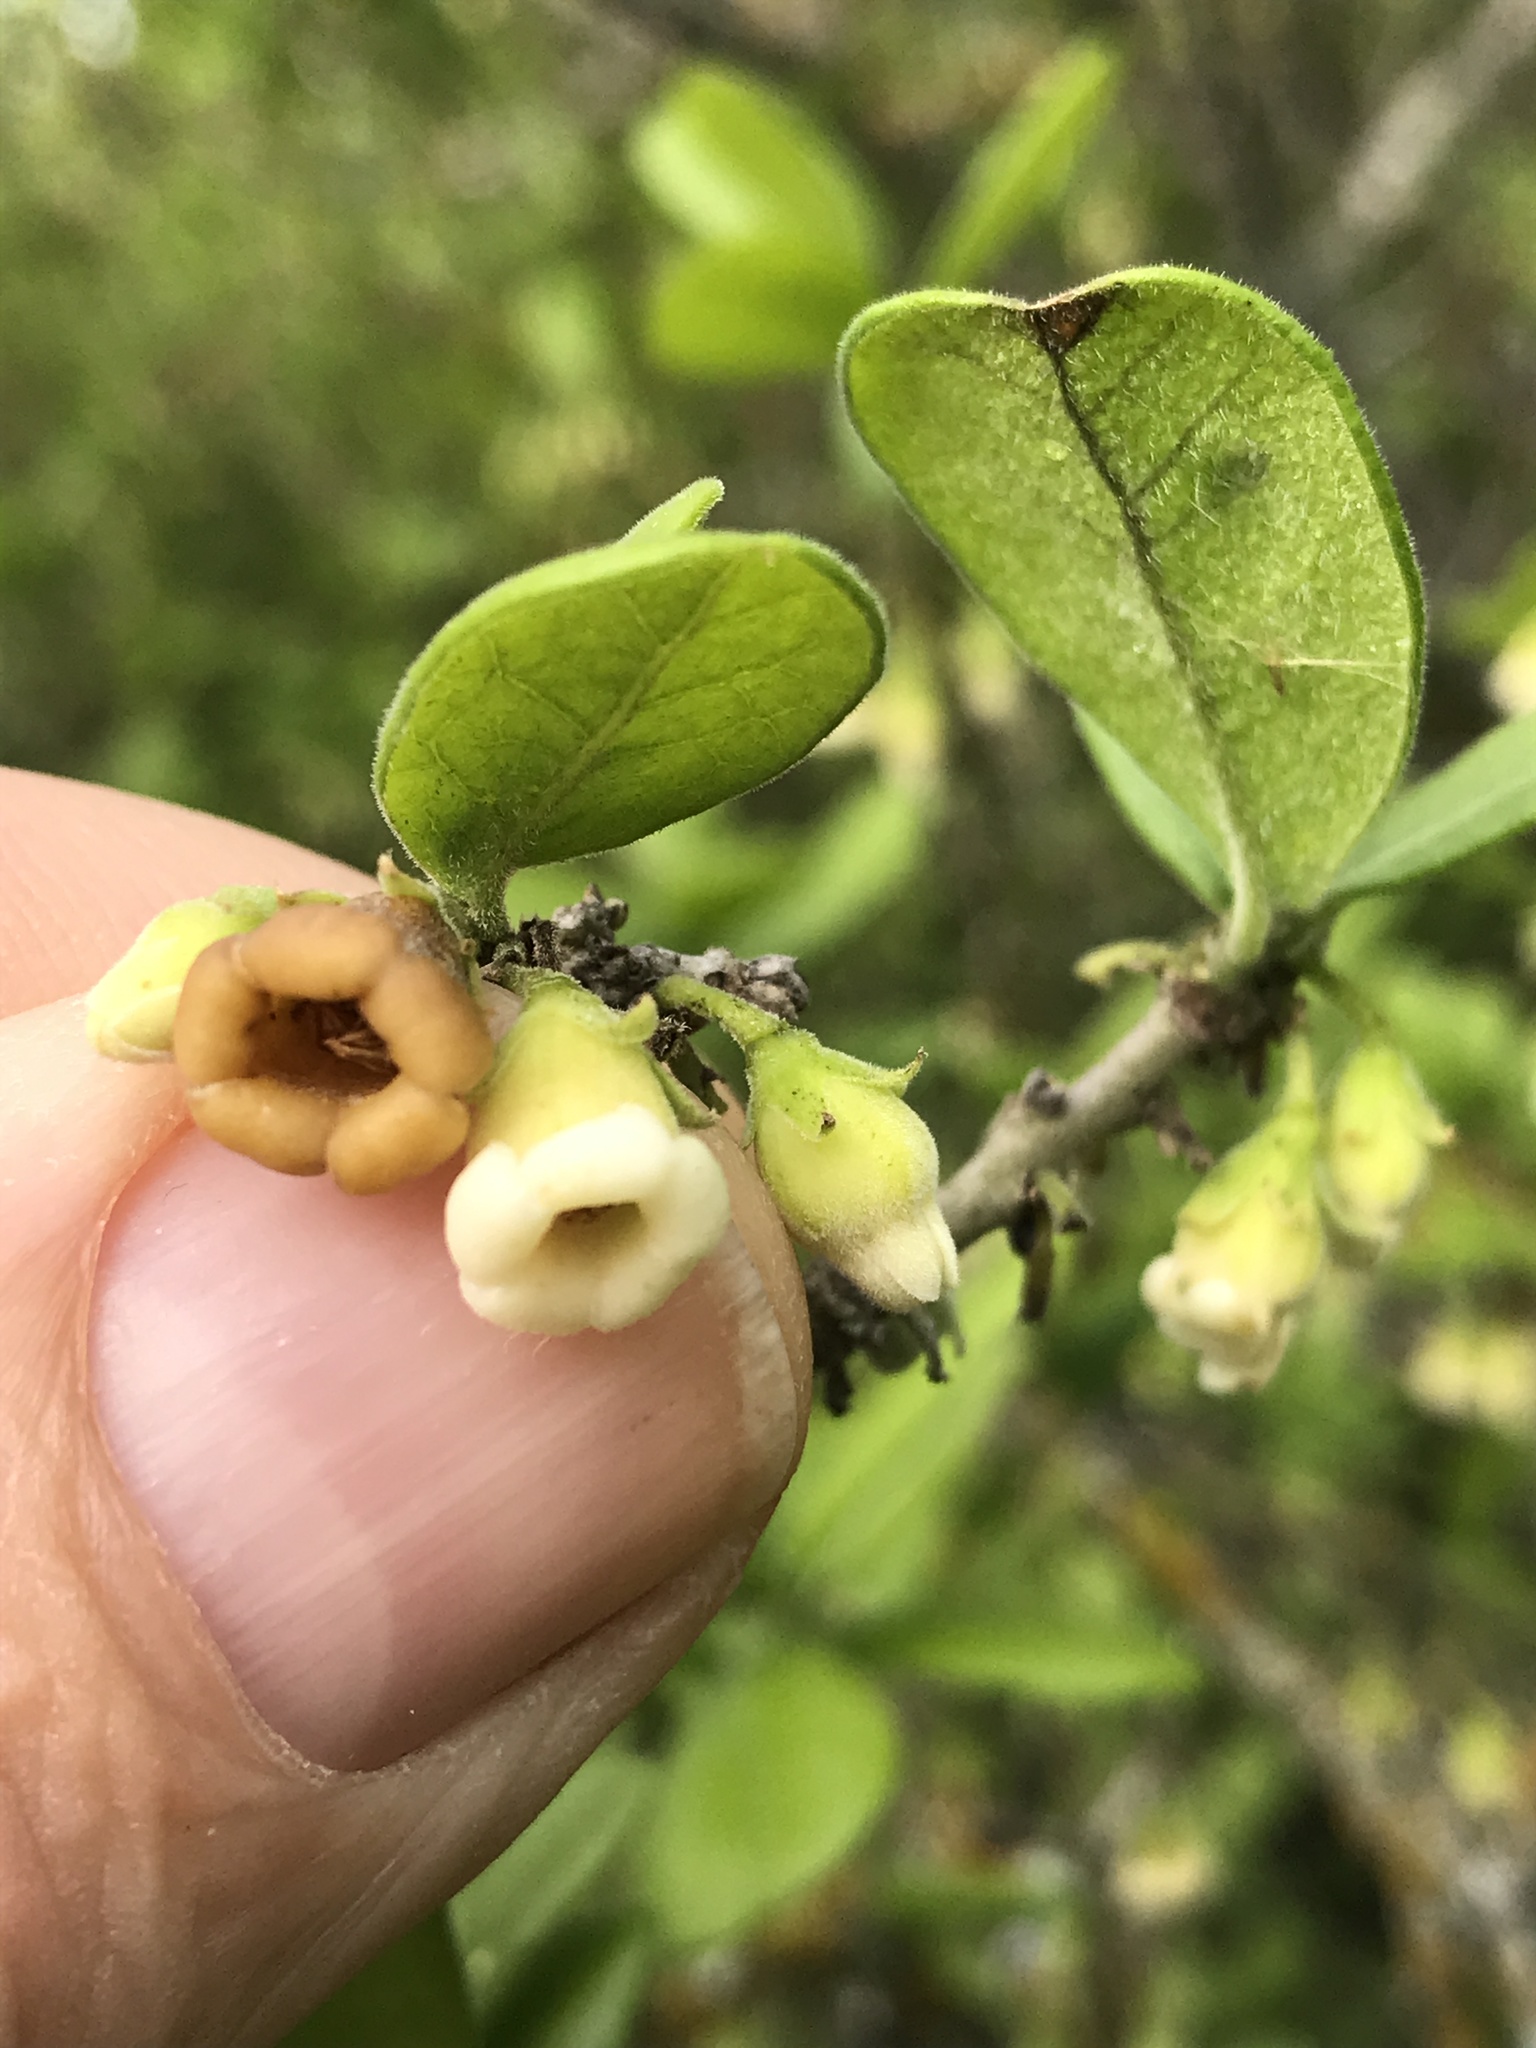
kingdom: Plantae
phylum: Tracheophyta
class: Magnoliopsida
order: Ericales
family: Ebenaceae
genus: Diospyros
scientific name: Diospyros texana
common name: Texas persimmon
